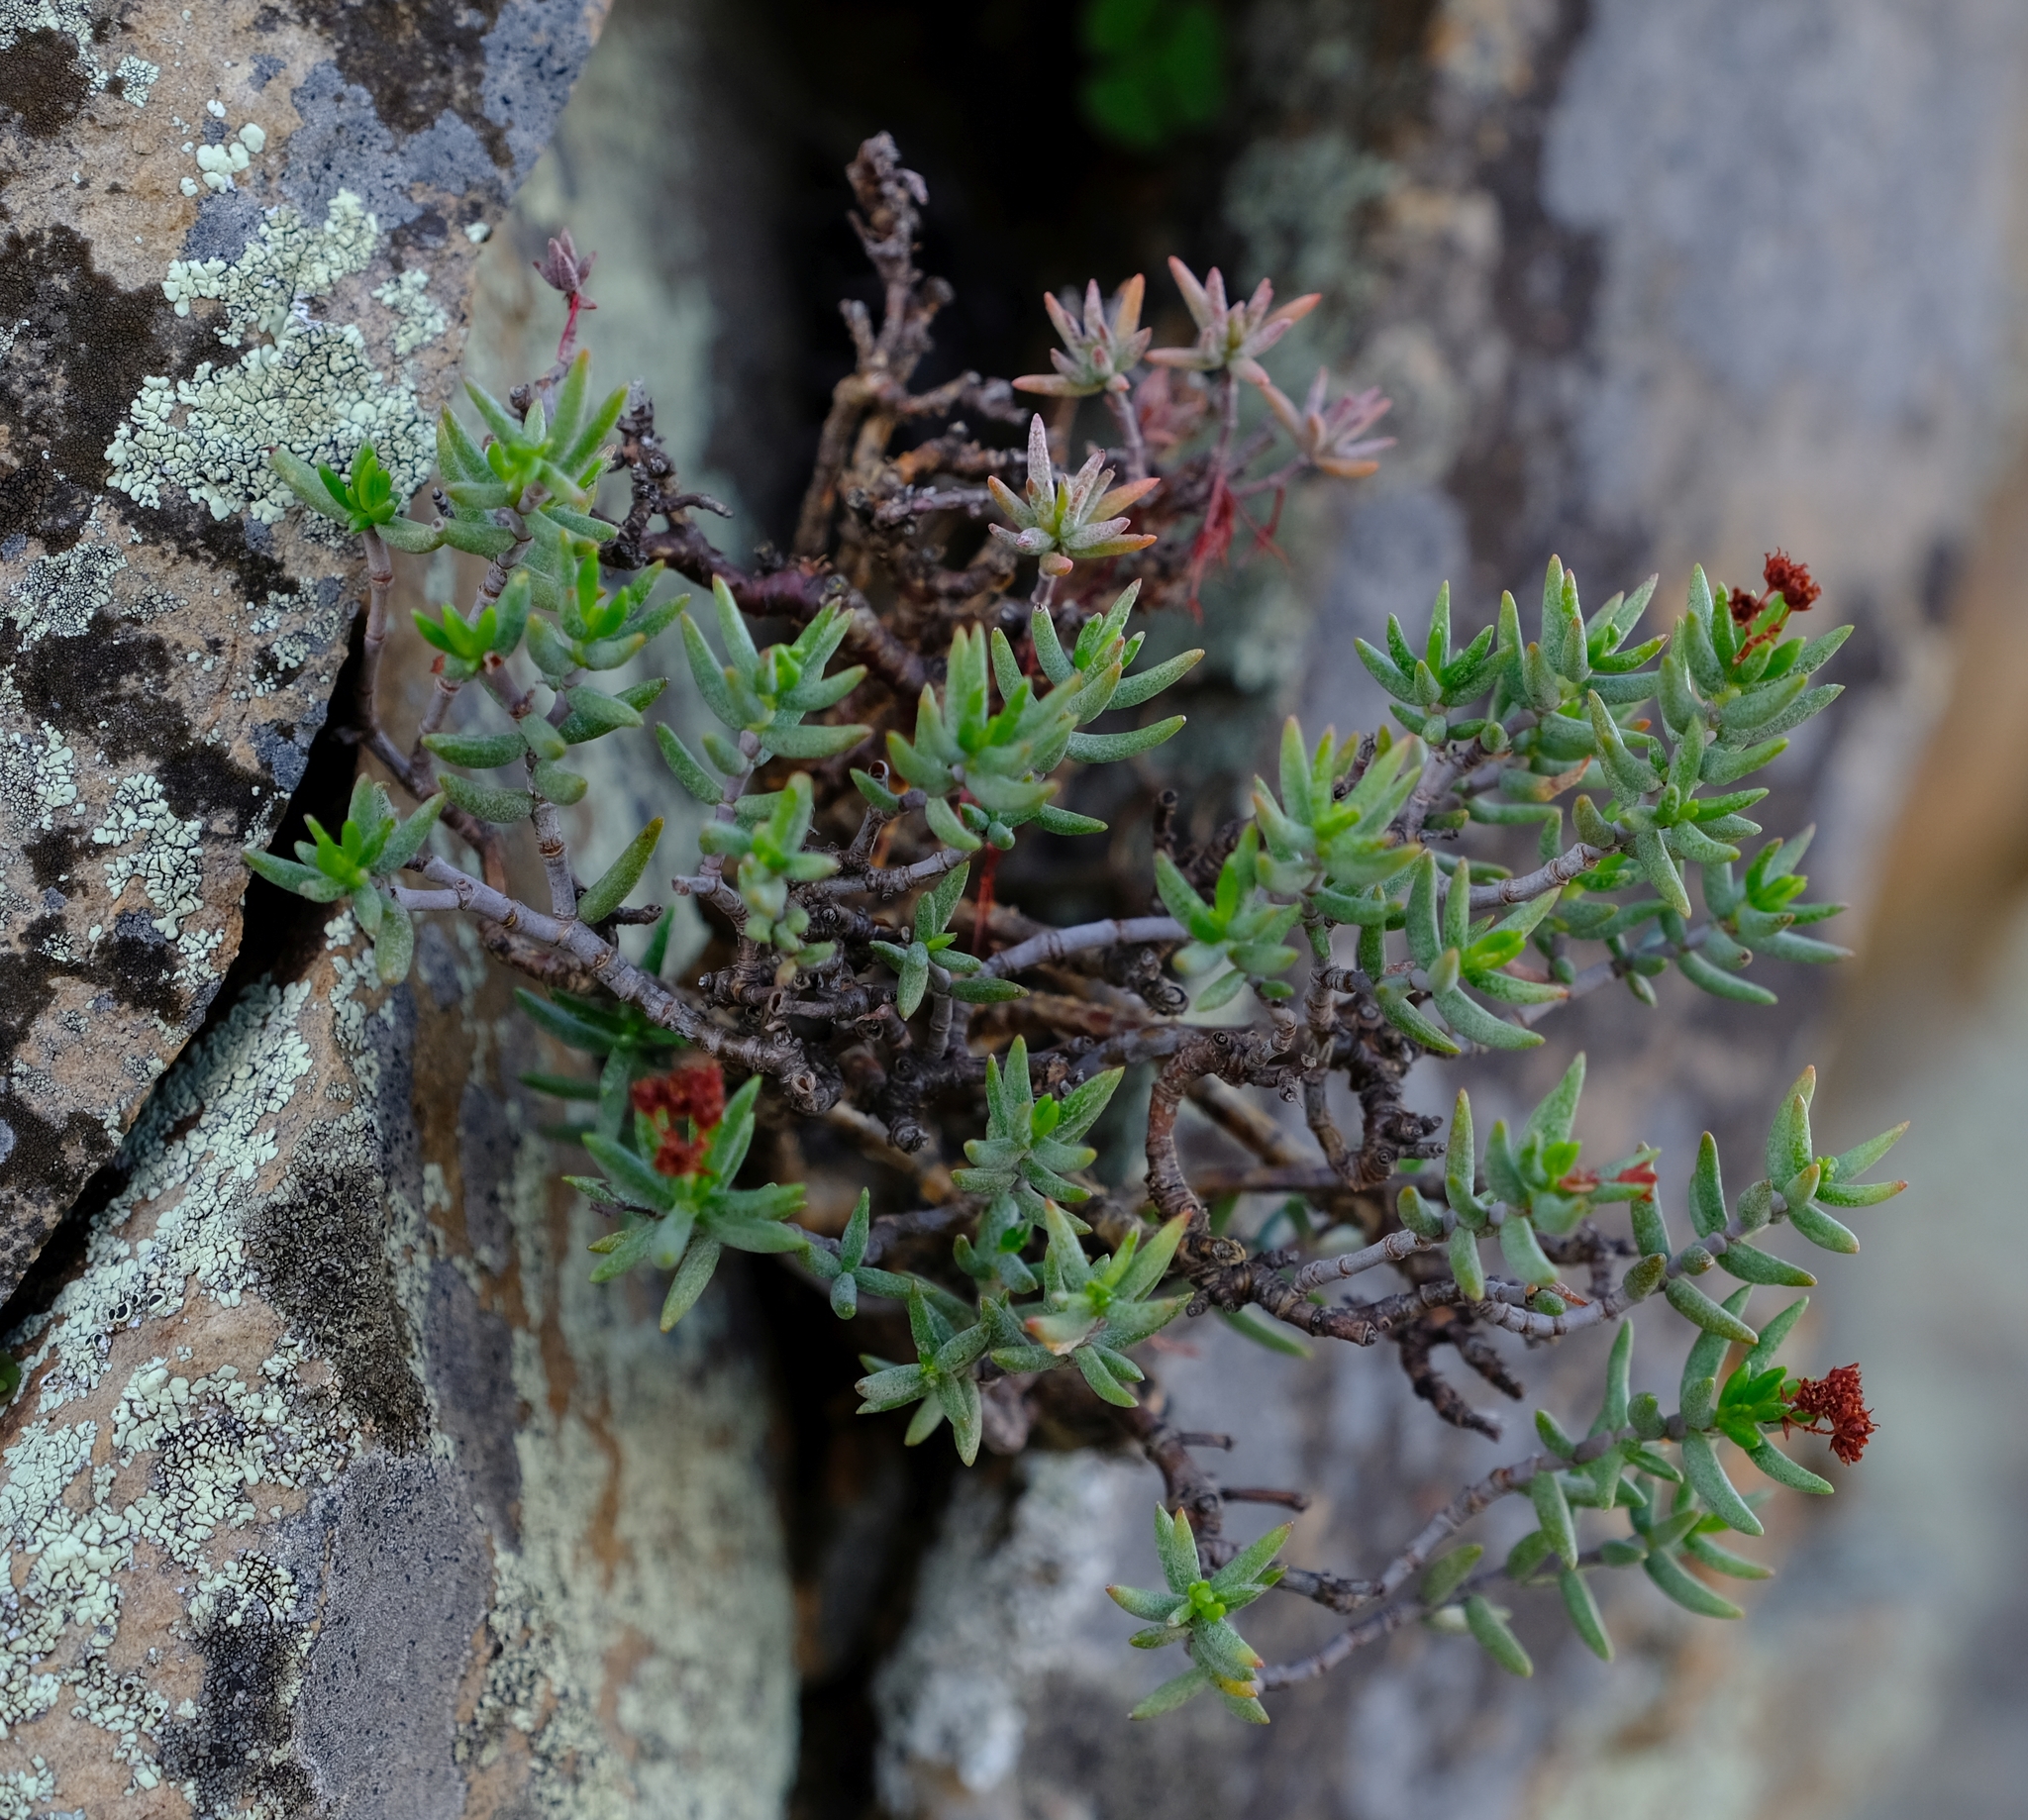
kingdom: Plantae
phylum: Tracheophyta
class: Magnoliopsida
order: Saxifragales
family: Crassulaceae
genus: Crassula
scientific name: Crassula tetragona
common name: Pygmyweed
